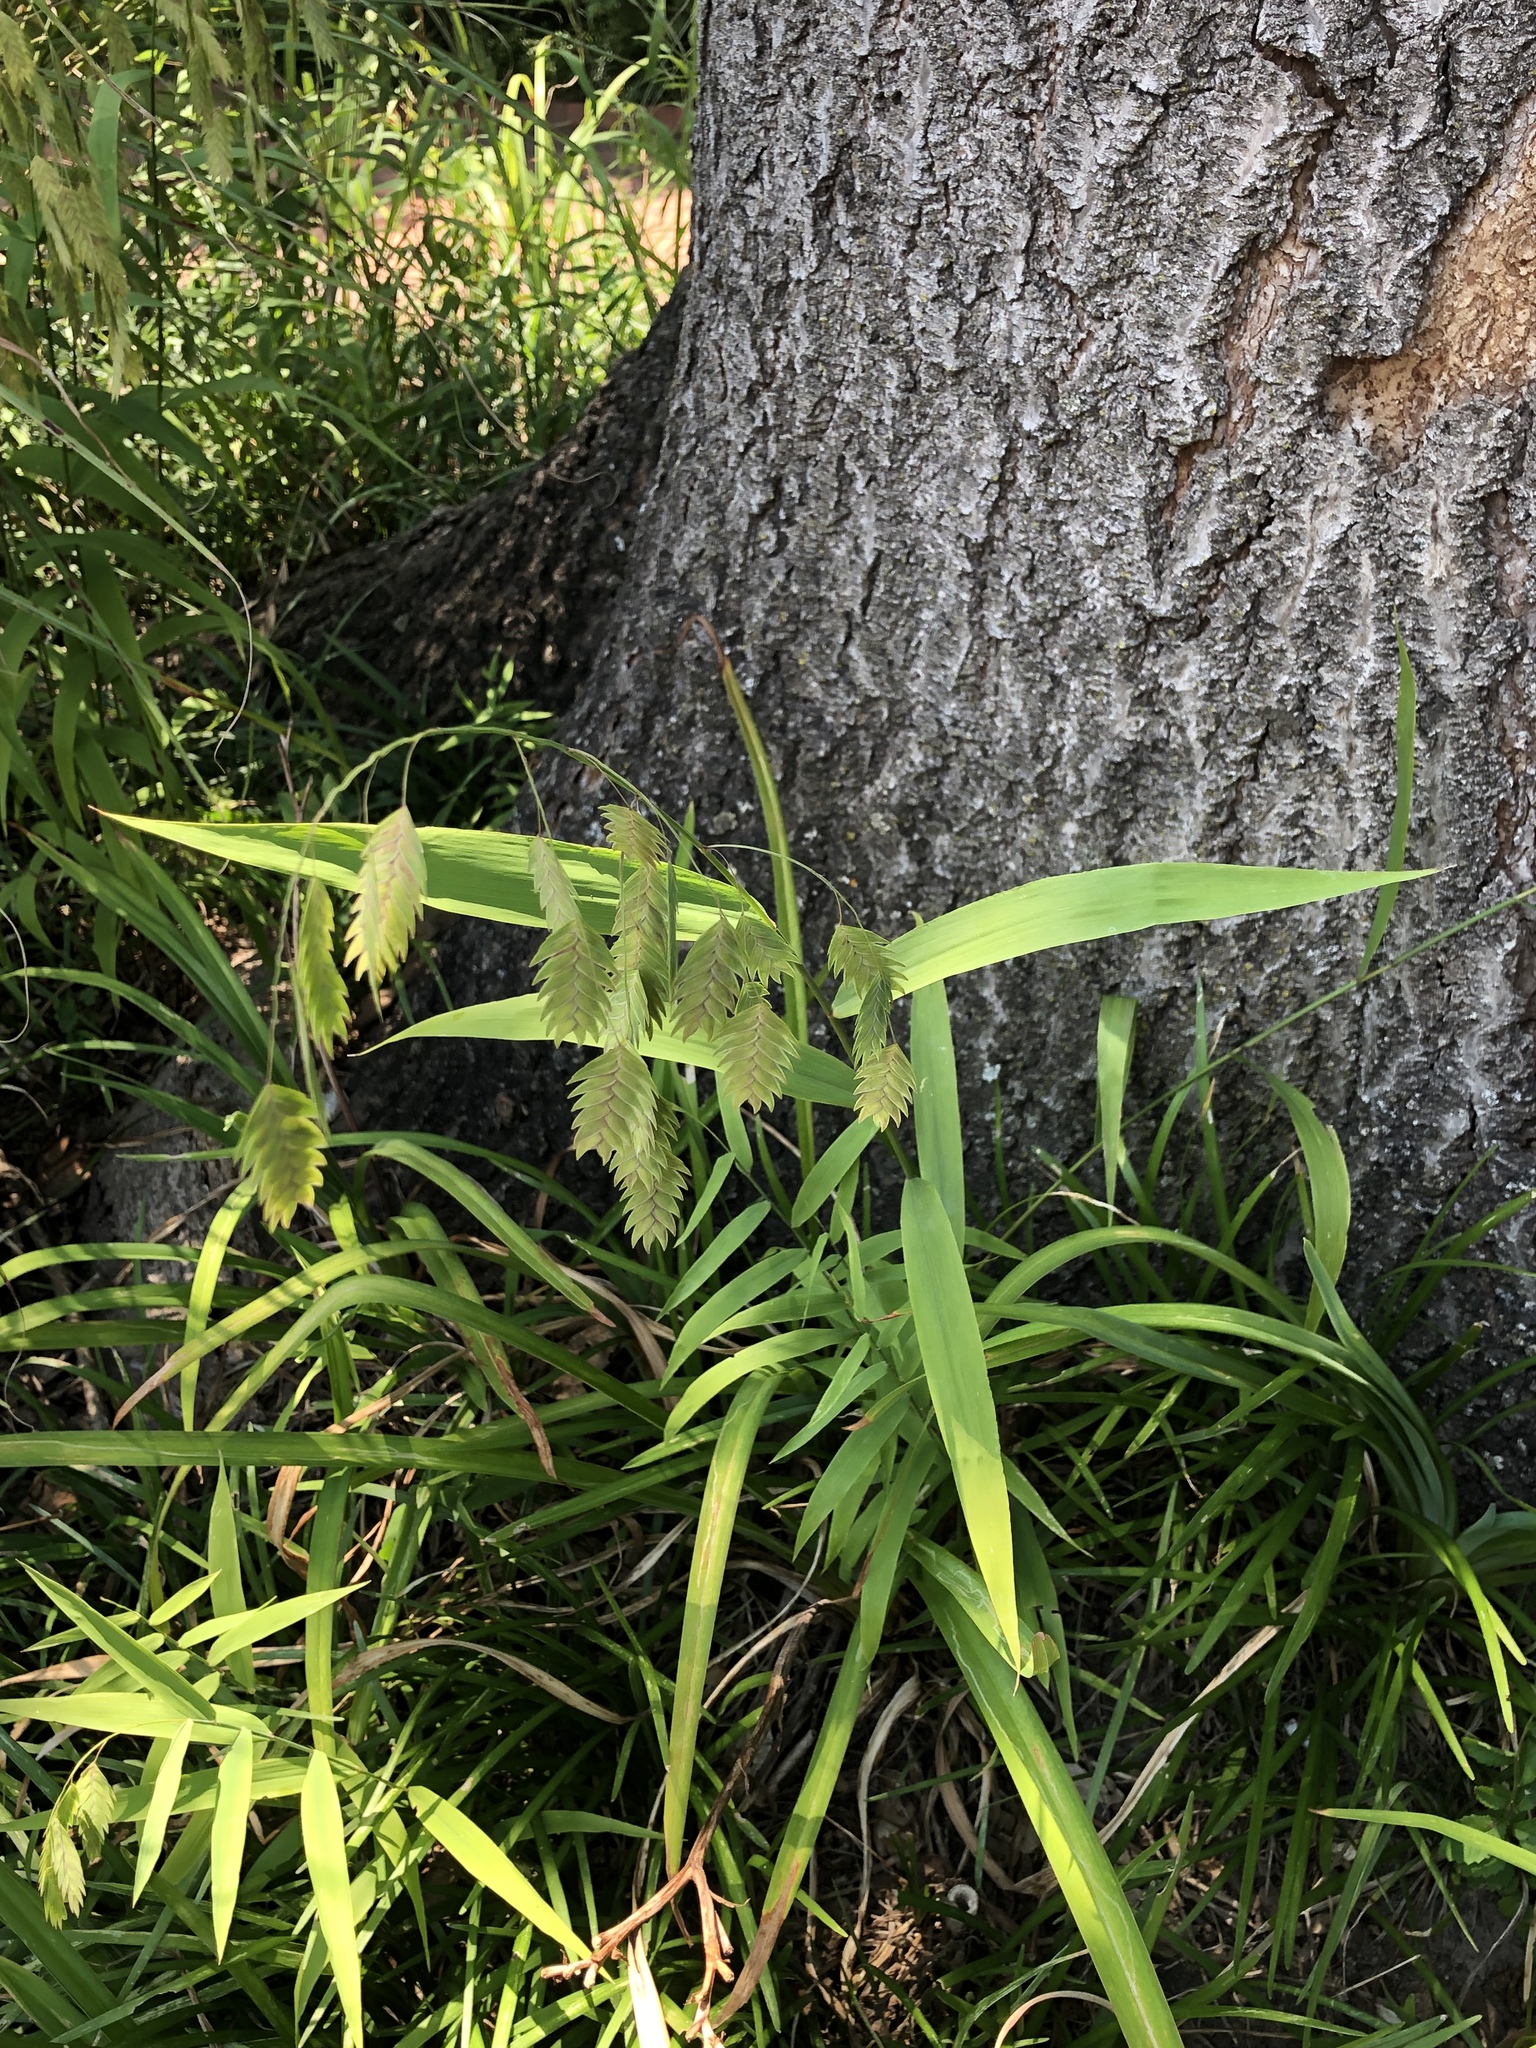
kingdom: Plantae
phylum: Tracheophyta
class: Liliopsida
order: Poales
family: Poaceae
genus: Chasmanthium
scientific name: Chasmanthium latifolium
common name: Broad-leaved chasmanthium
